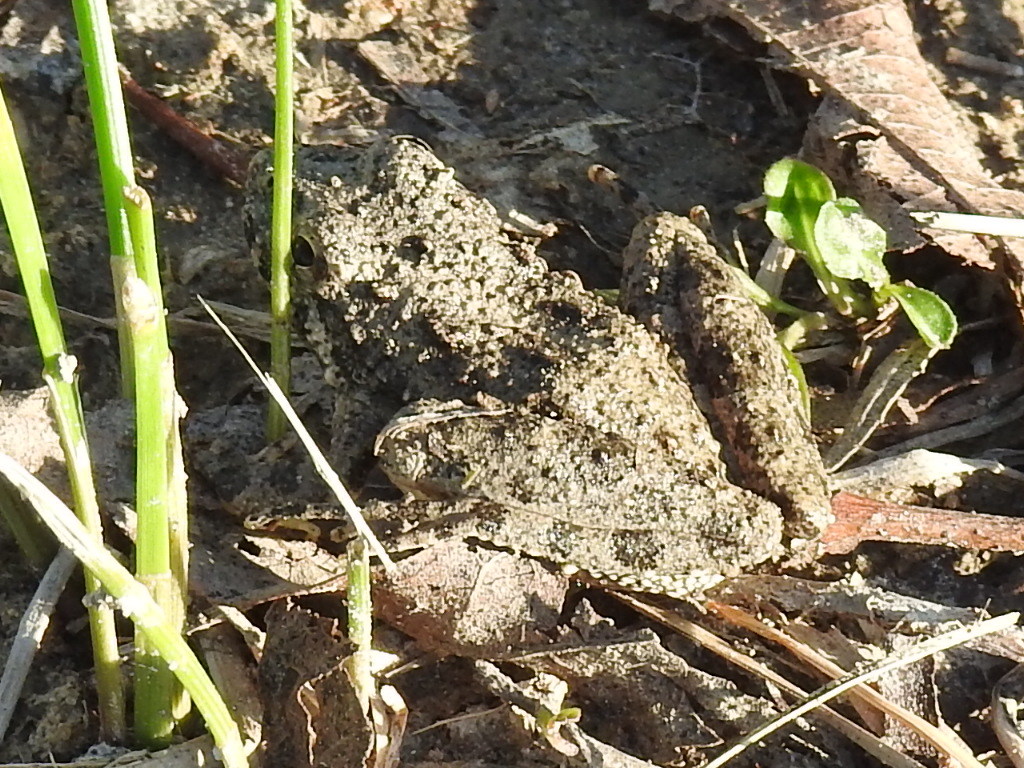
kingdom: Animalia
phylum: Chordata
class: Amphibia
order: Anura
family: Hylidae
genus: Acris
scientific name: Acris blanchardi
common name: Blanchard's cricket frog
